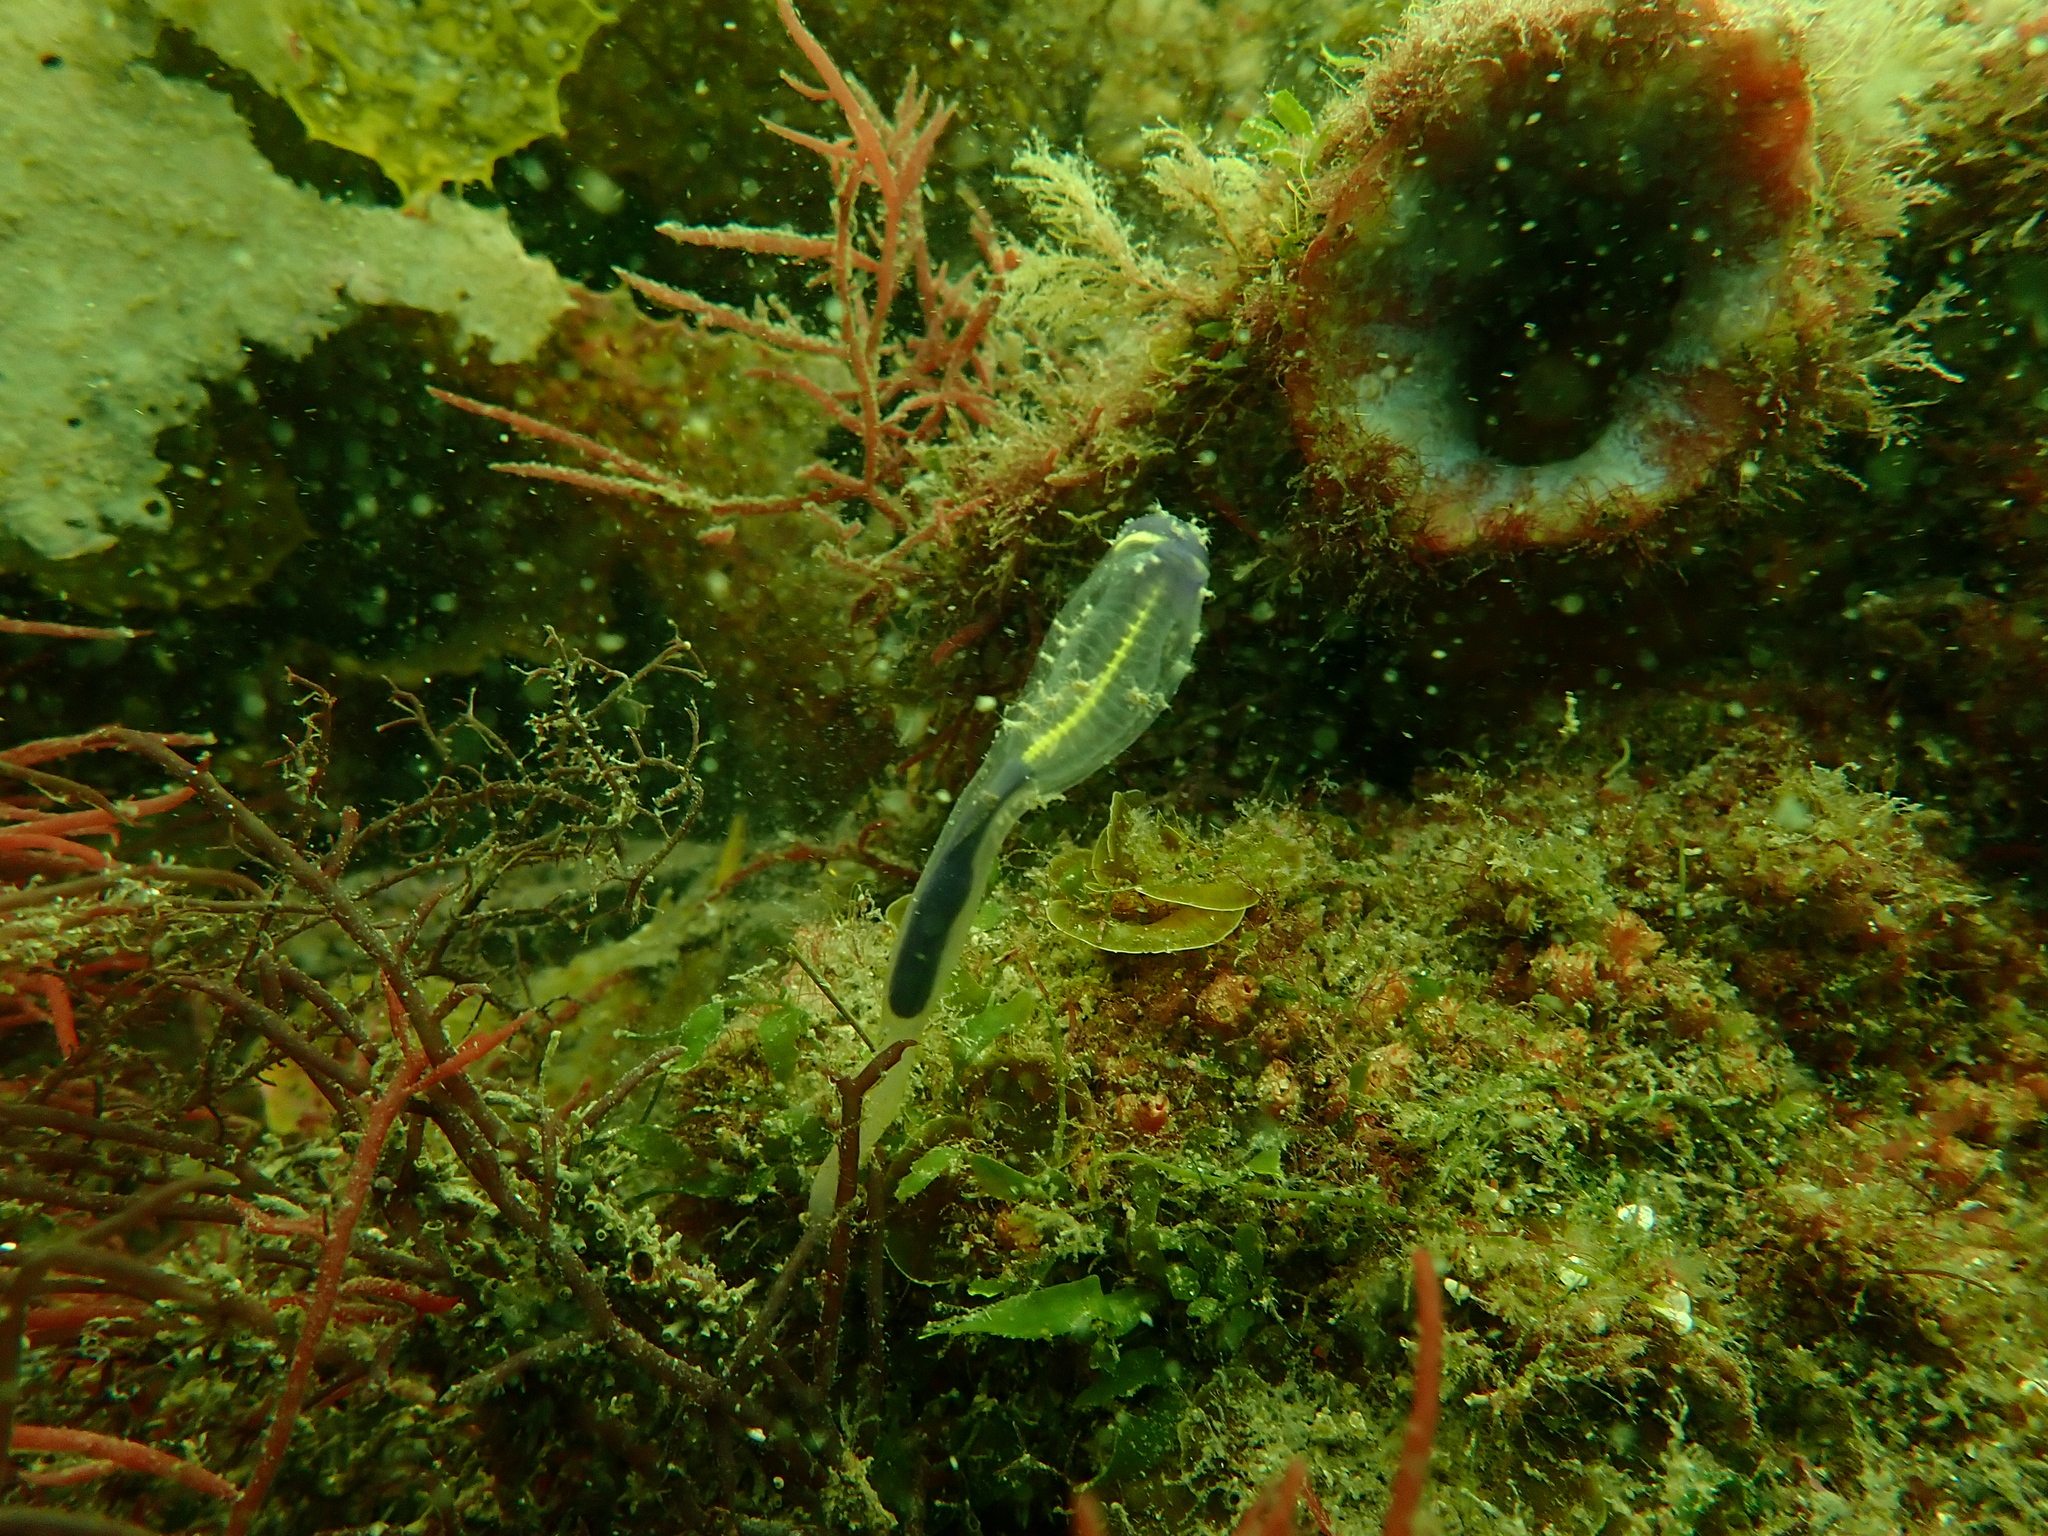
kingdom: Animalia
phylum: Chordata
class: Ascidiacea
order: Aplousobranchia
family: Clavelinidae
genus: Clavelina
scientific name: Clavelina meridionalis
